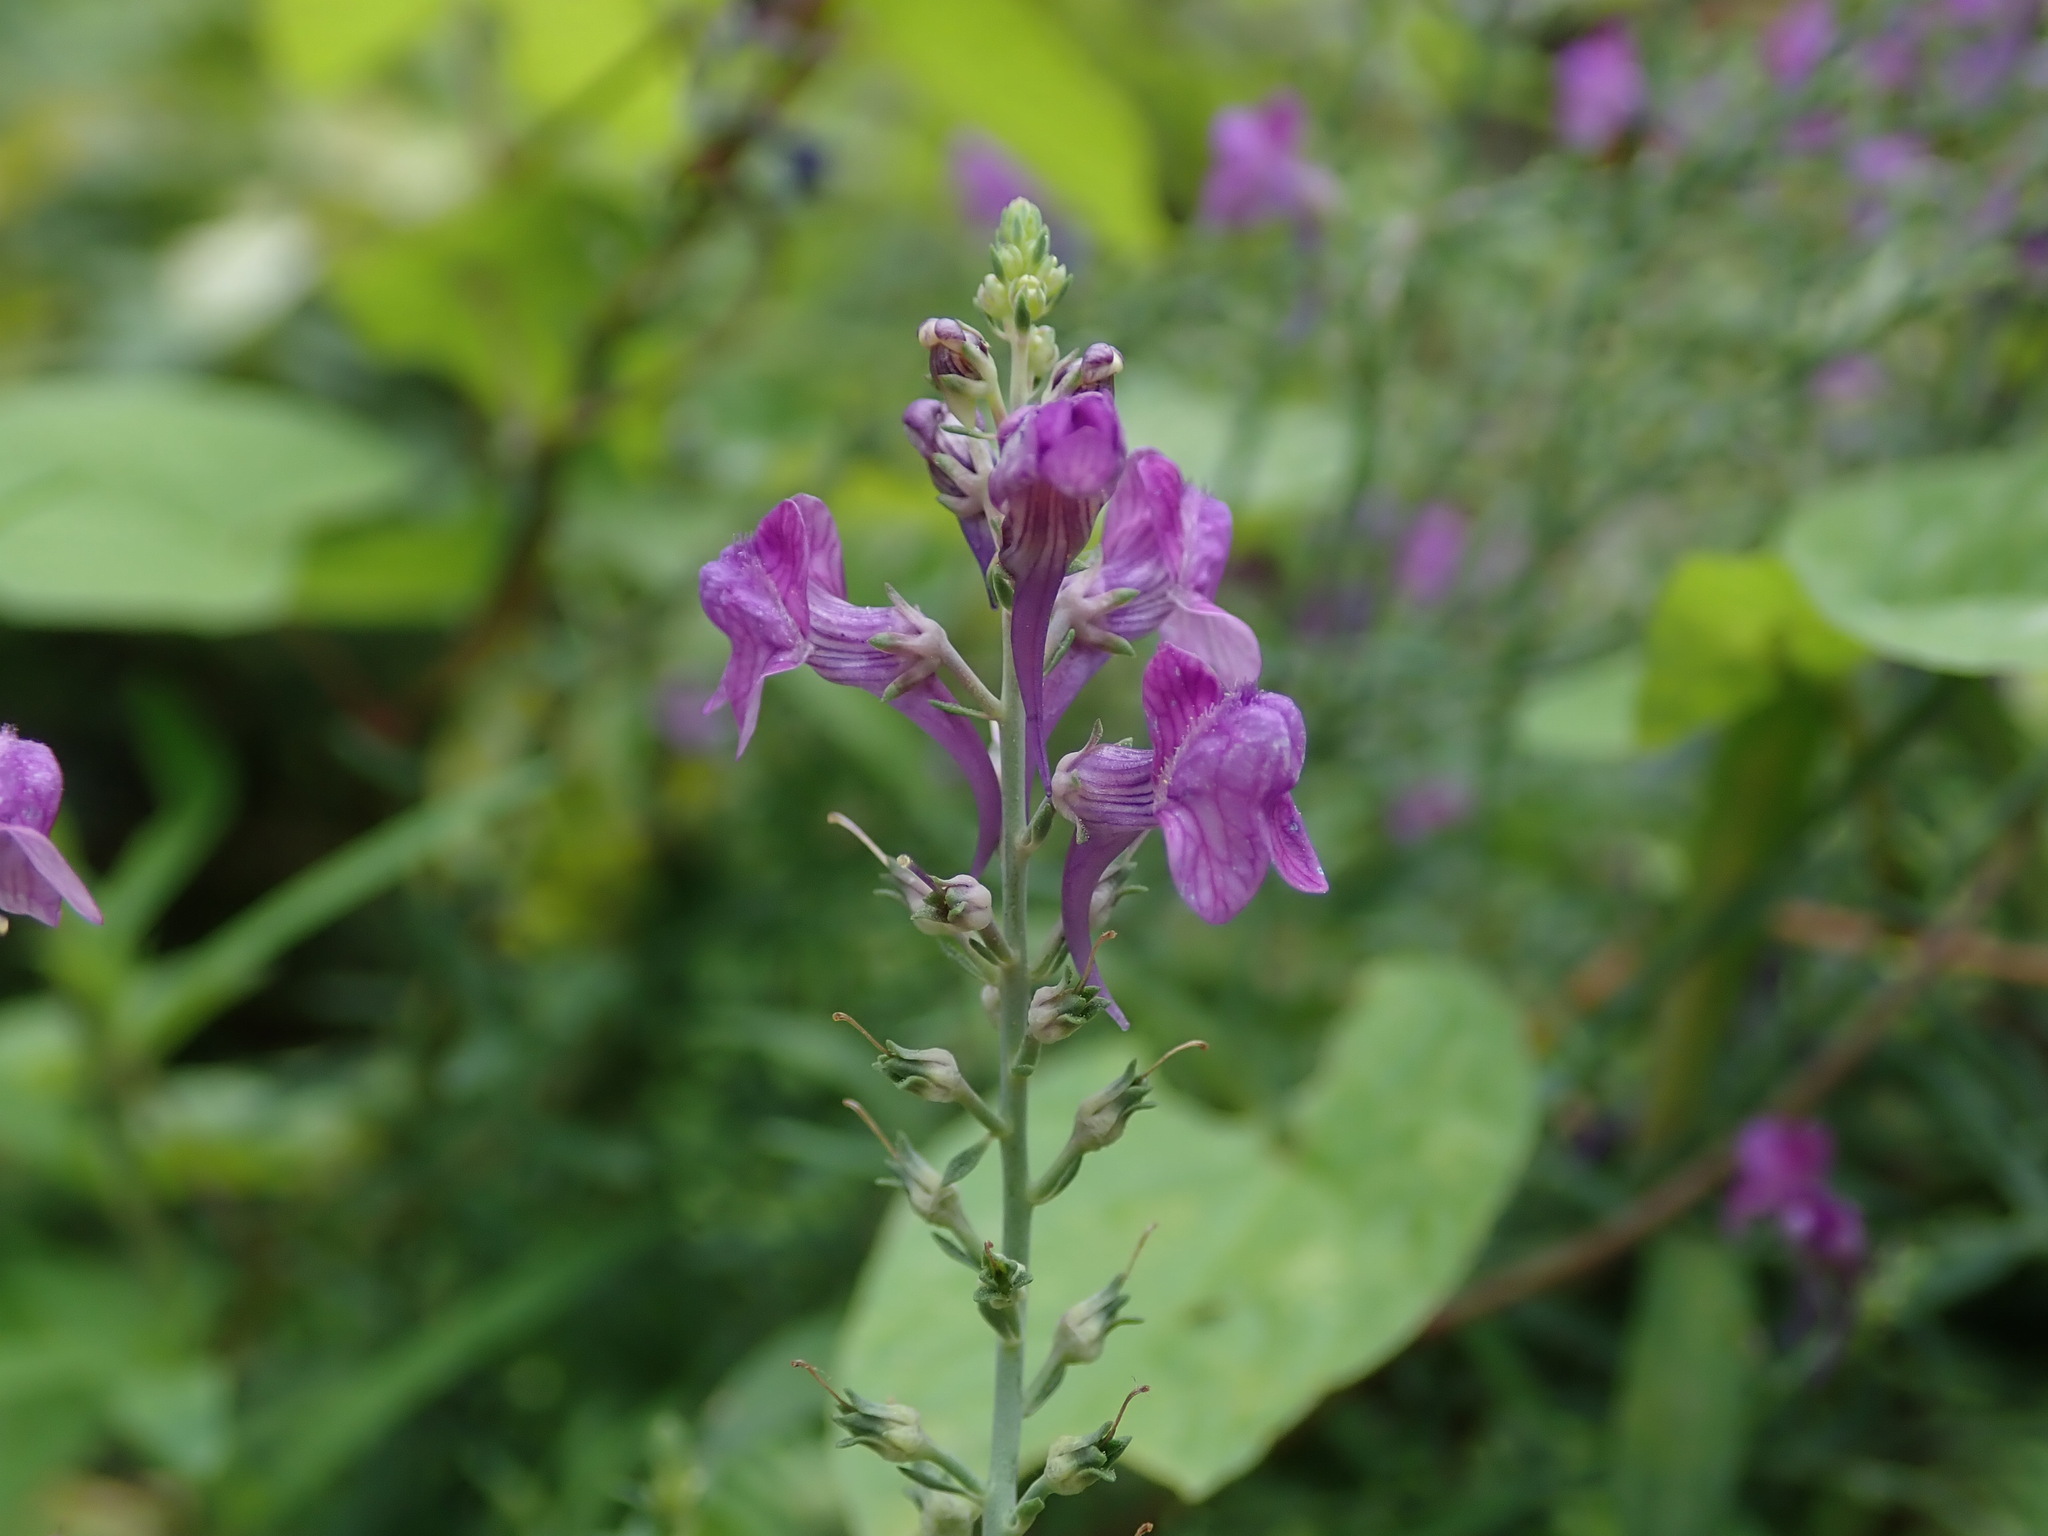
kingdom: Plantae
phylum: Tracheophyta
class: Magnoliopsida
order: Lamiales
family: Plantaginaceae
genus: Linaria
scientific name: Linaria purpurea
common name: Purple toadflax
